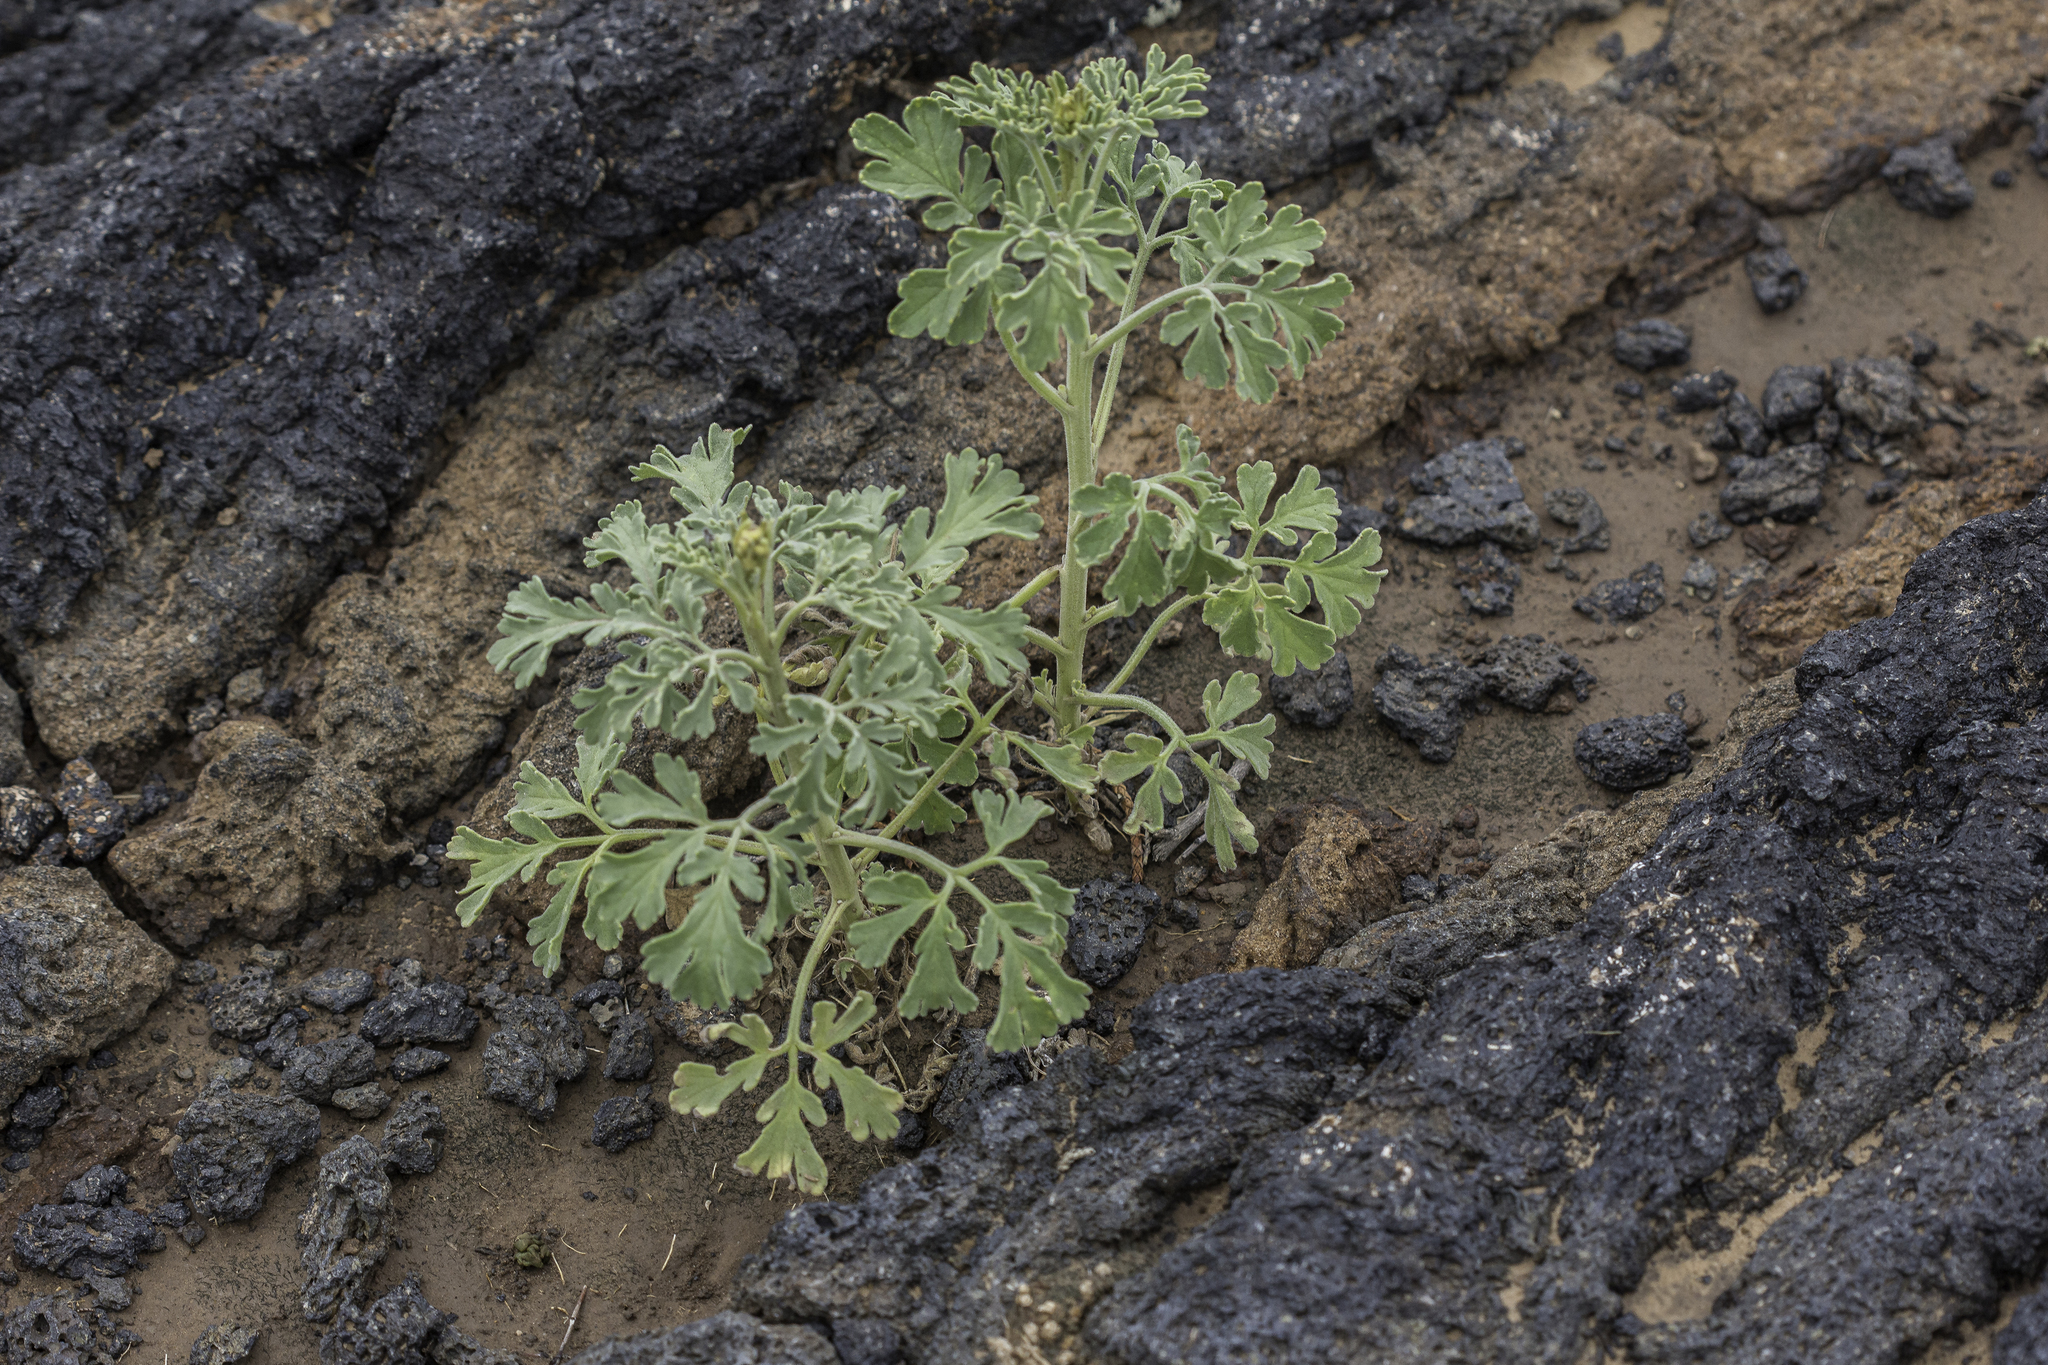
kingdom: Plantae
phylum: Tracheophyta
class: Magnoliopsida
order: Asterales
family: Asteraceae
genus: Hymenothrix
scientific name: Hymenothrix pedata
